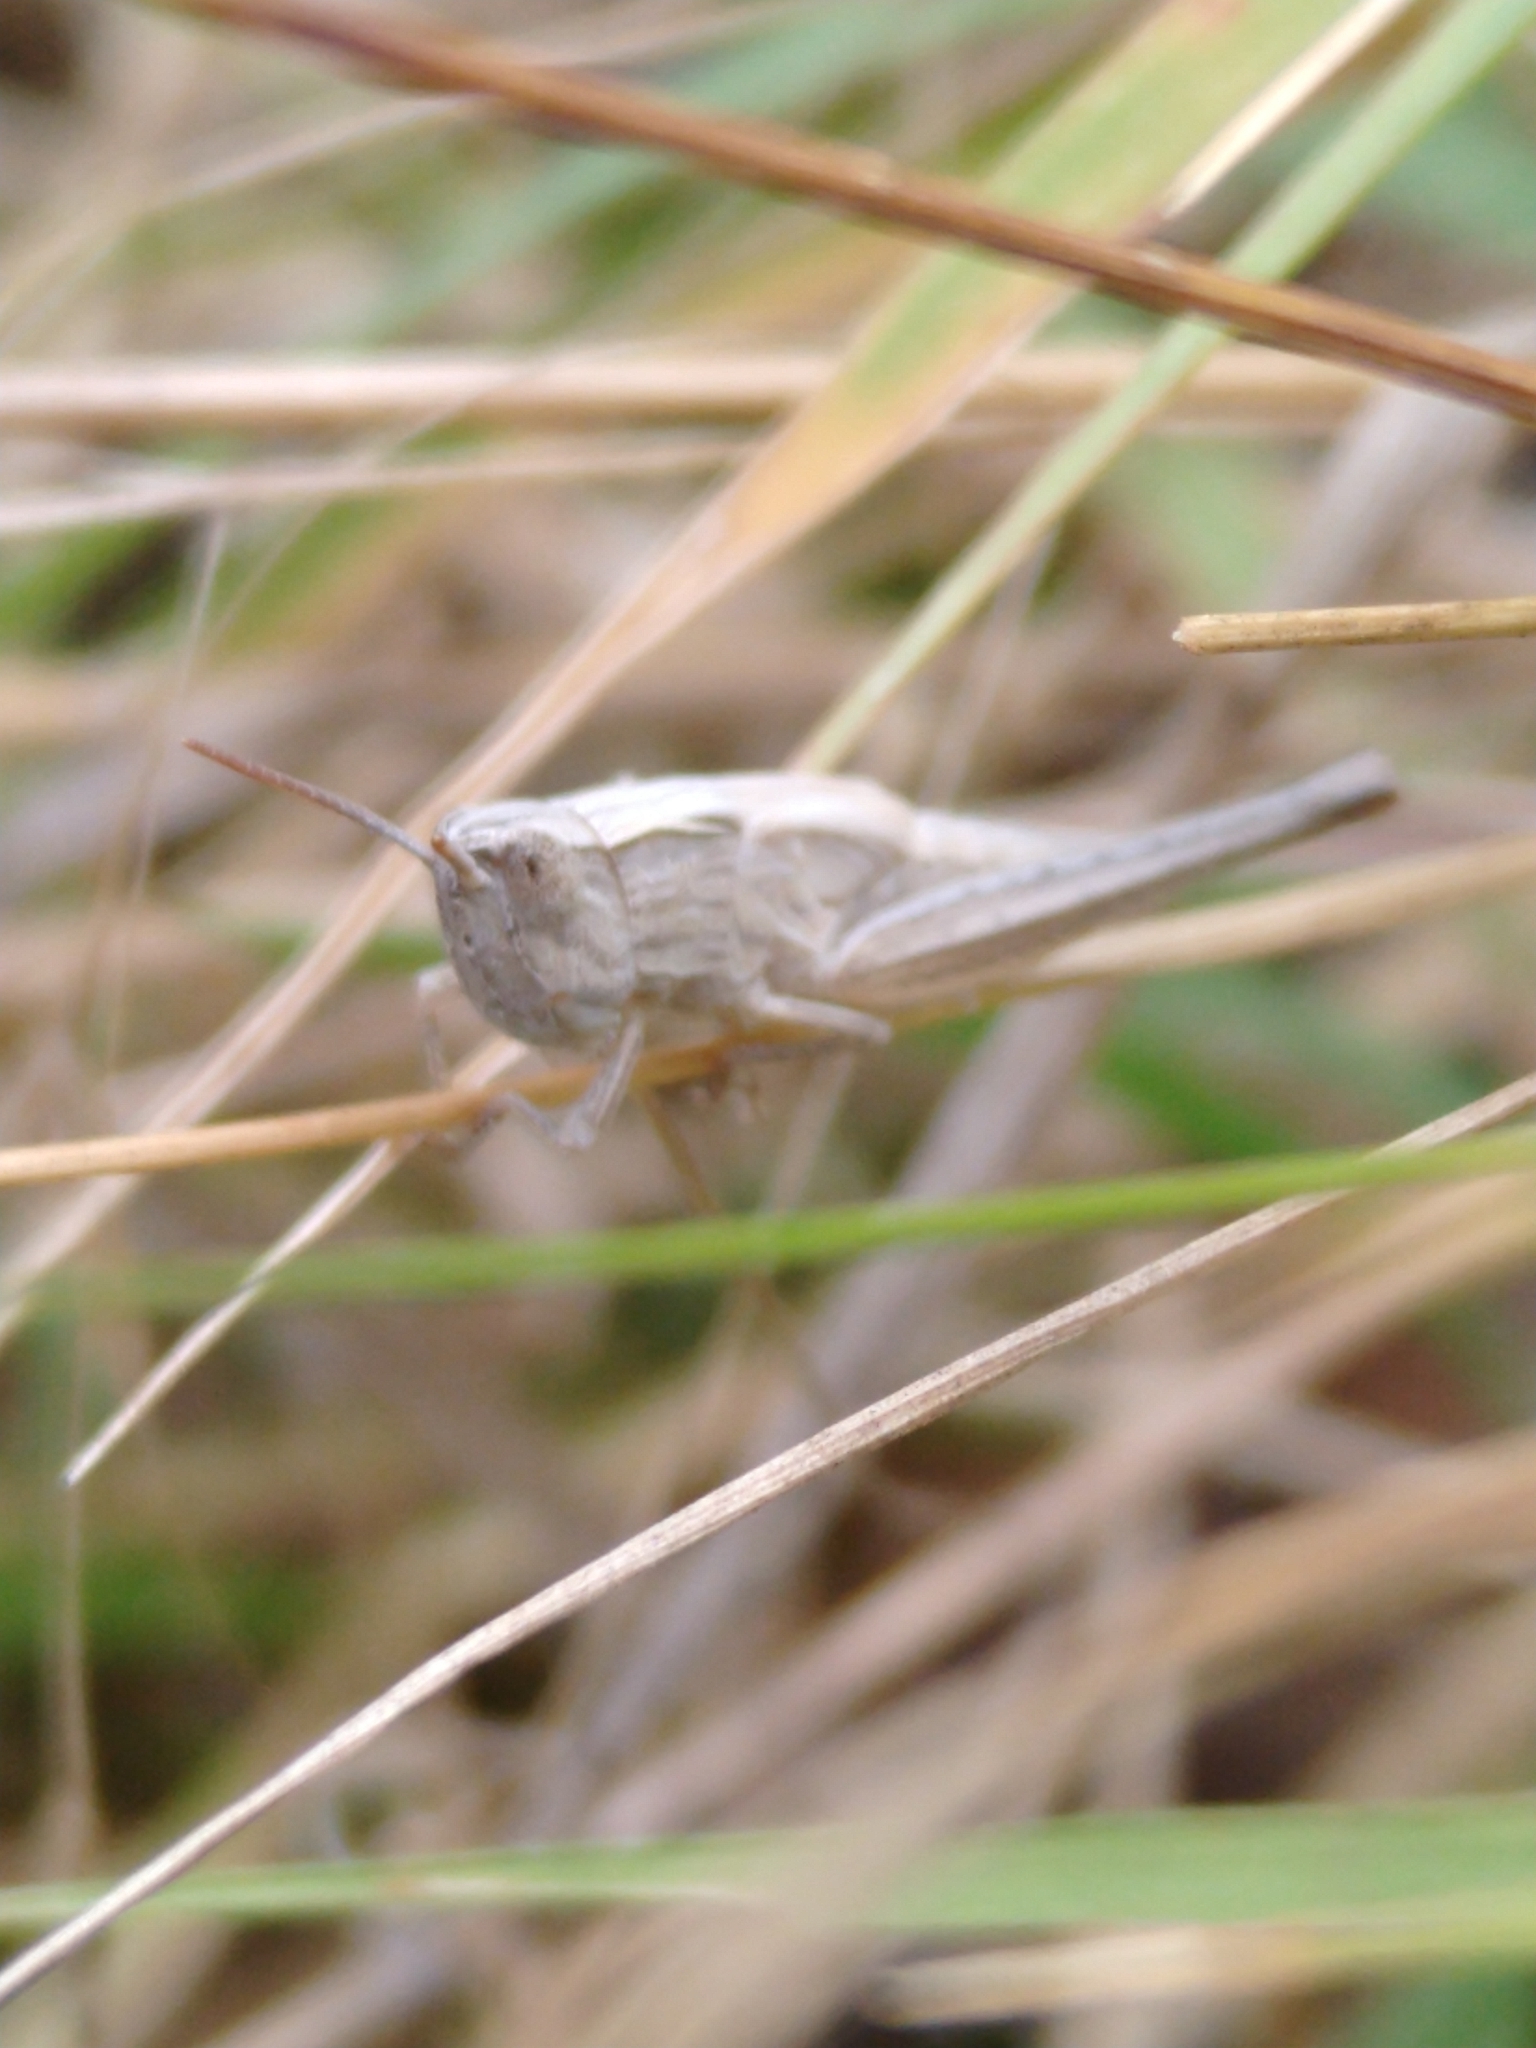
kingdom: Animalia
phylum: Arthropoda
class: Insecta
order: Orthoptera
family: Acrididae
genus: Chorthippus
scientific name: Chorthippus loratus
